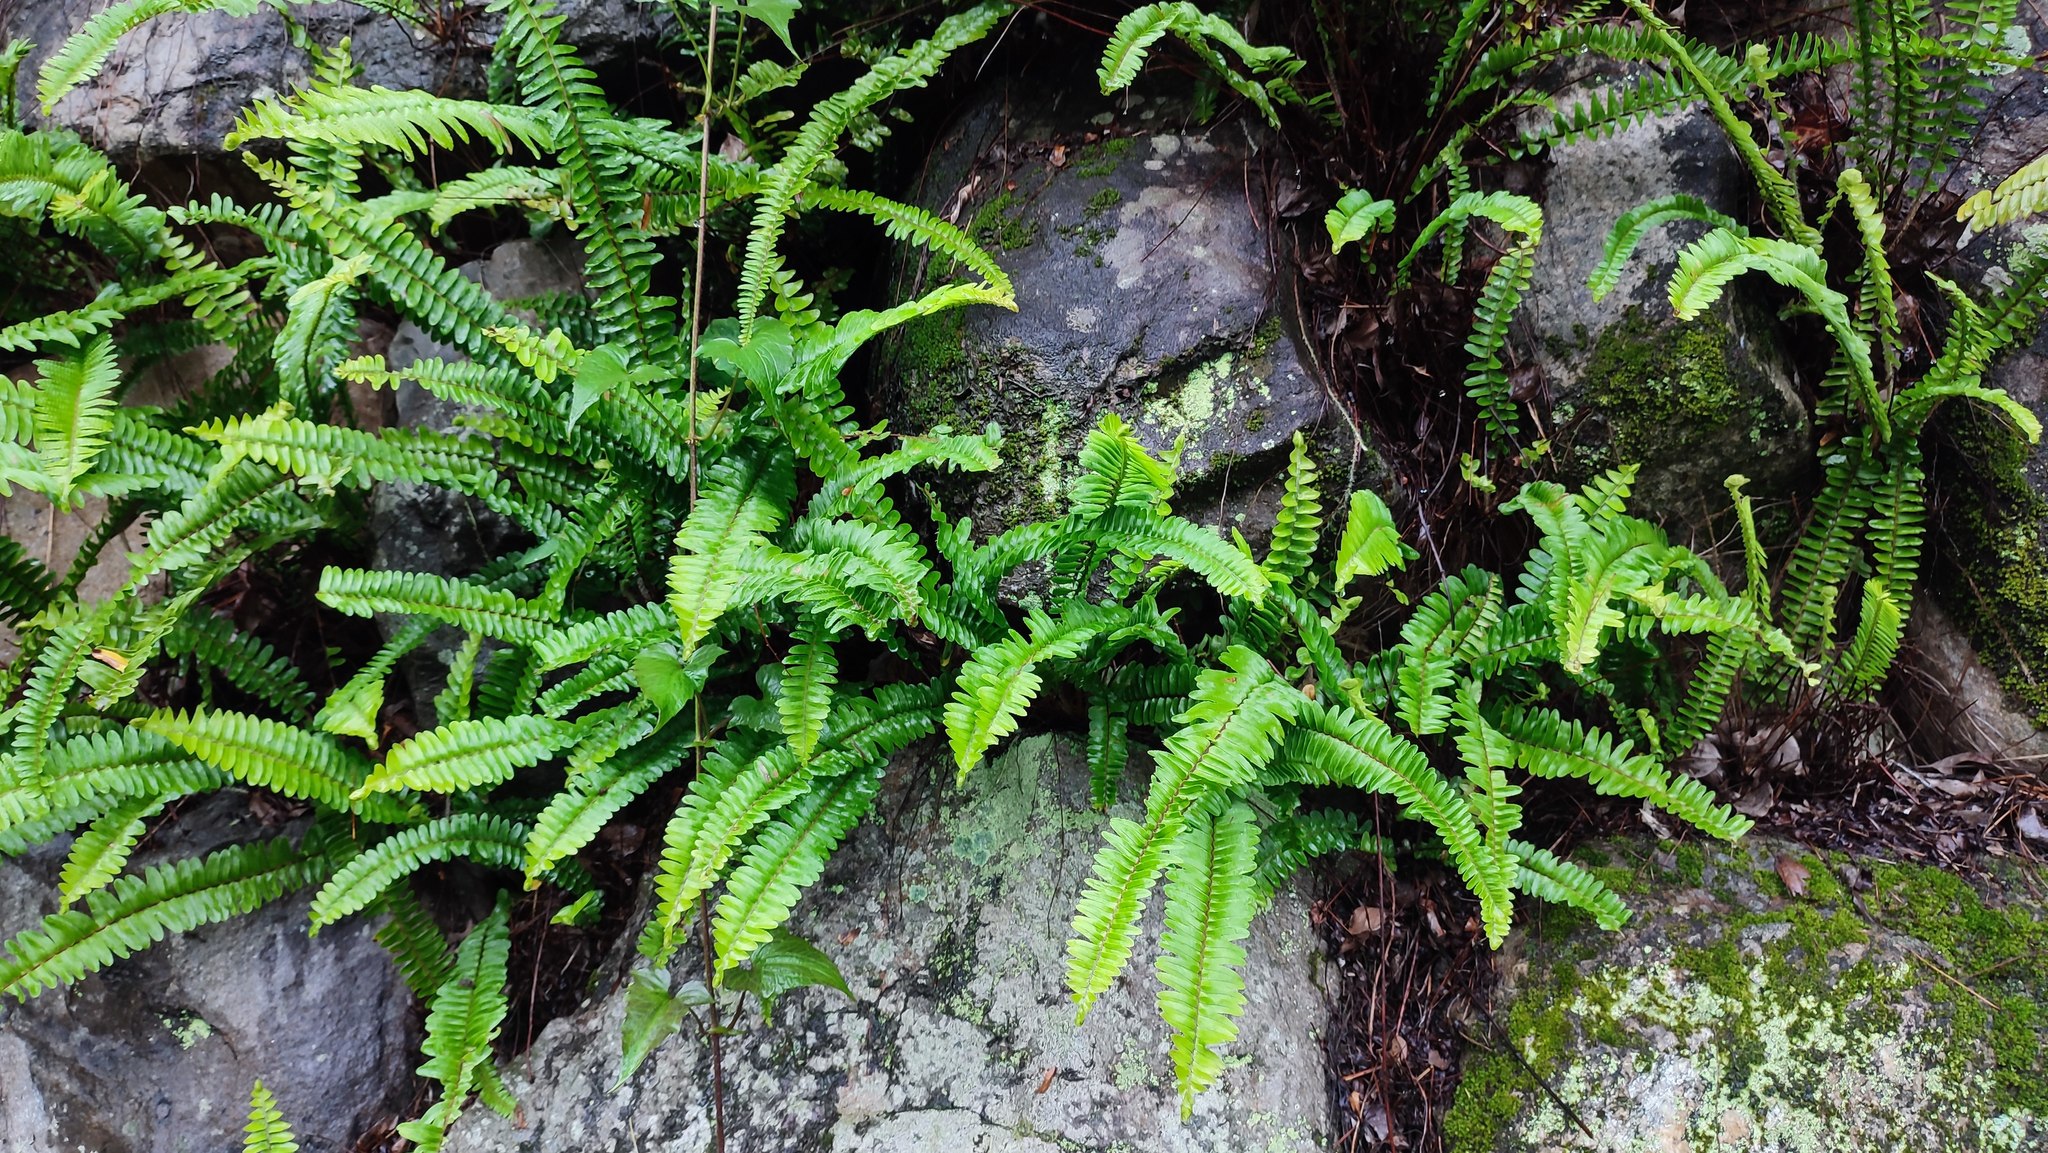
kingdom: Plantae
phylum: Tracheophyta
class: Polypodiopsida
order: Polypodiales
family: Nephrolepidaceae
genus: Nephrolepis
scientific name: Nephrolepis cordifolia
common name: Narrow swordfern
